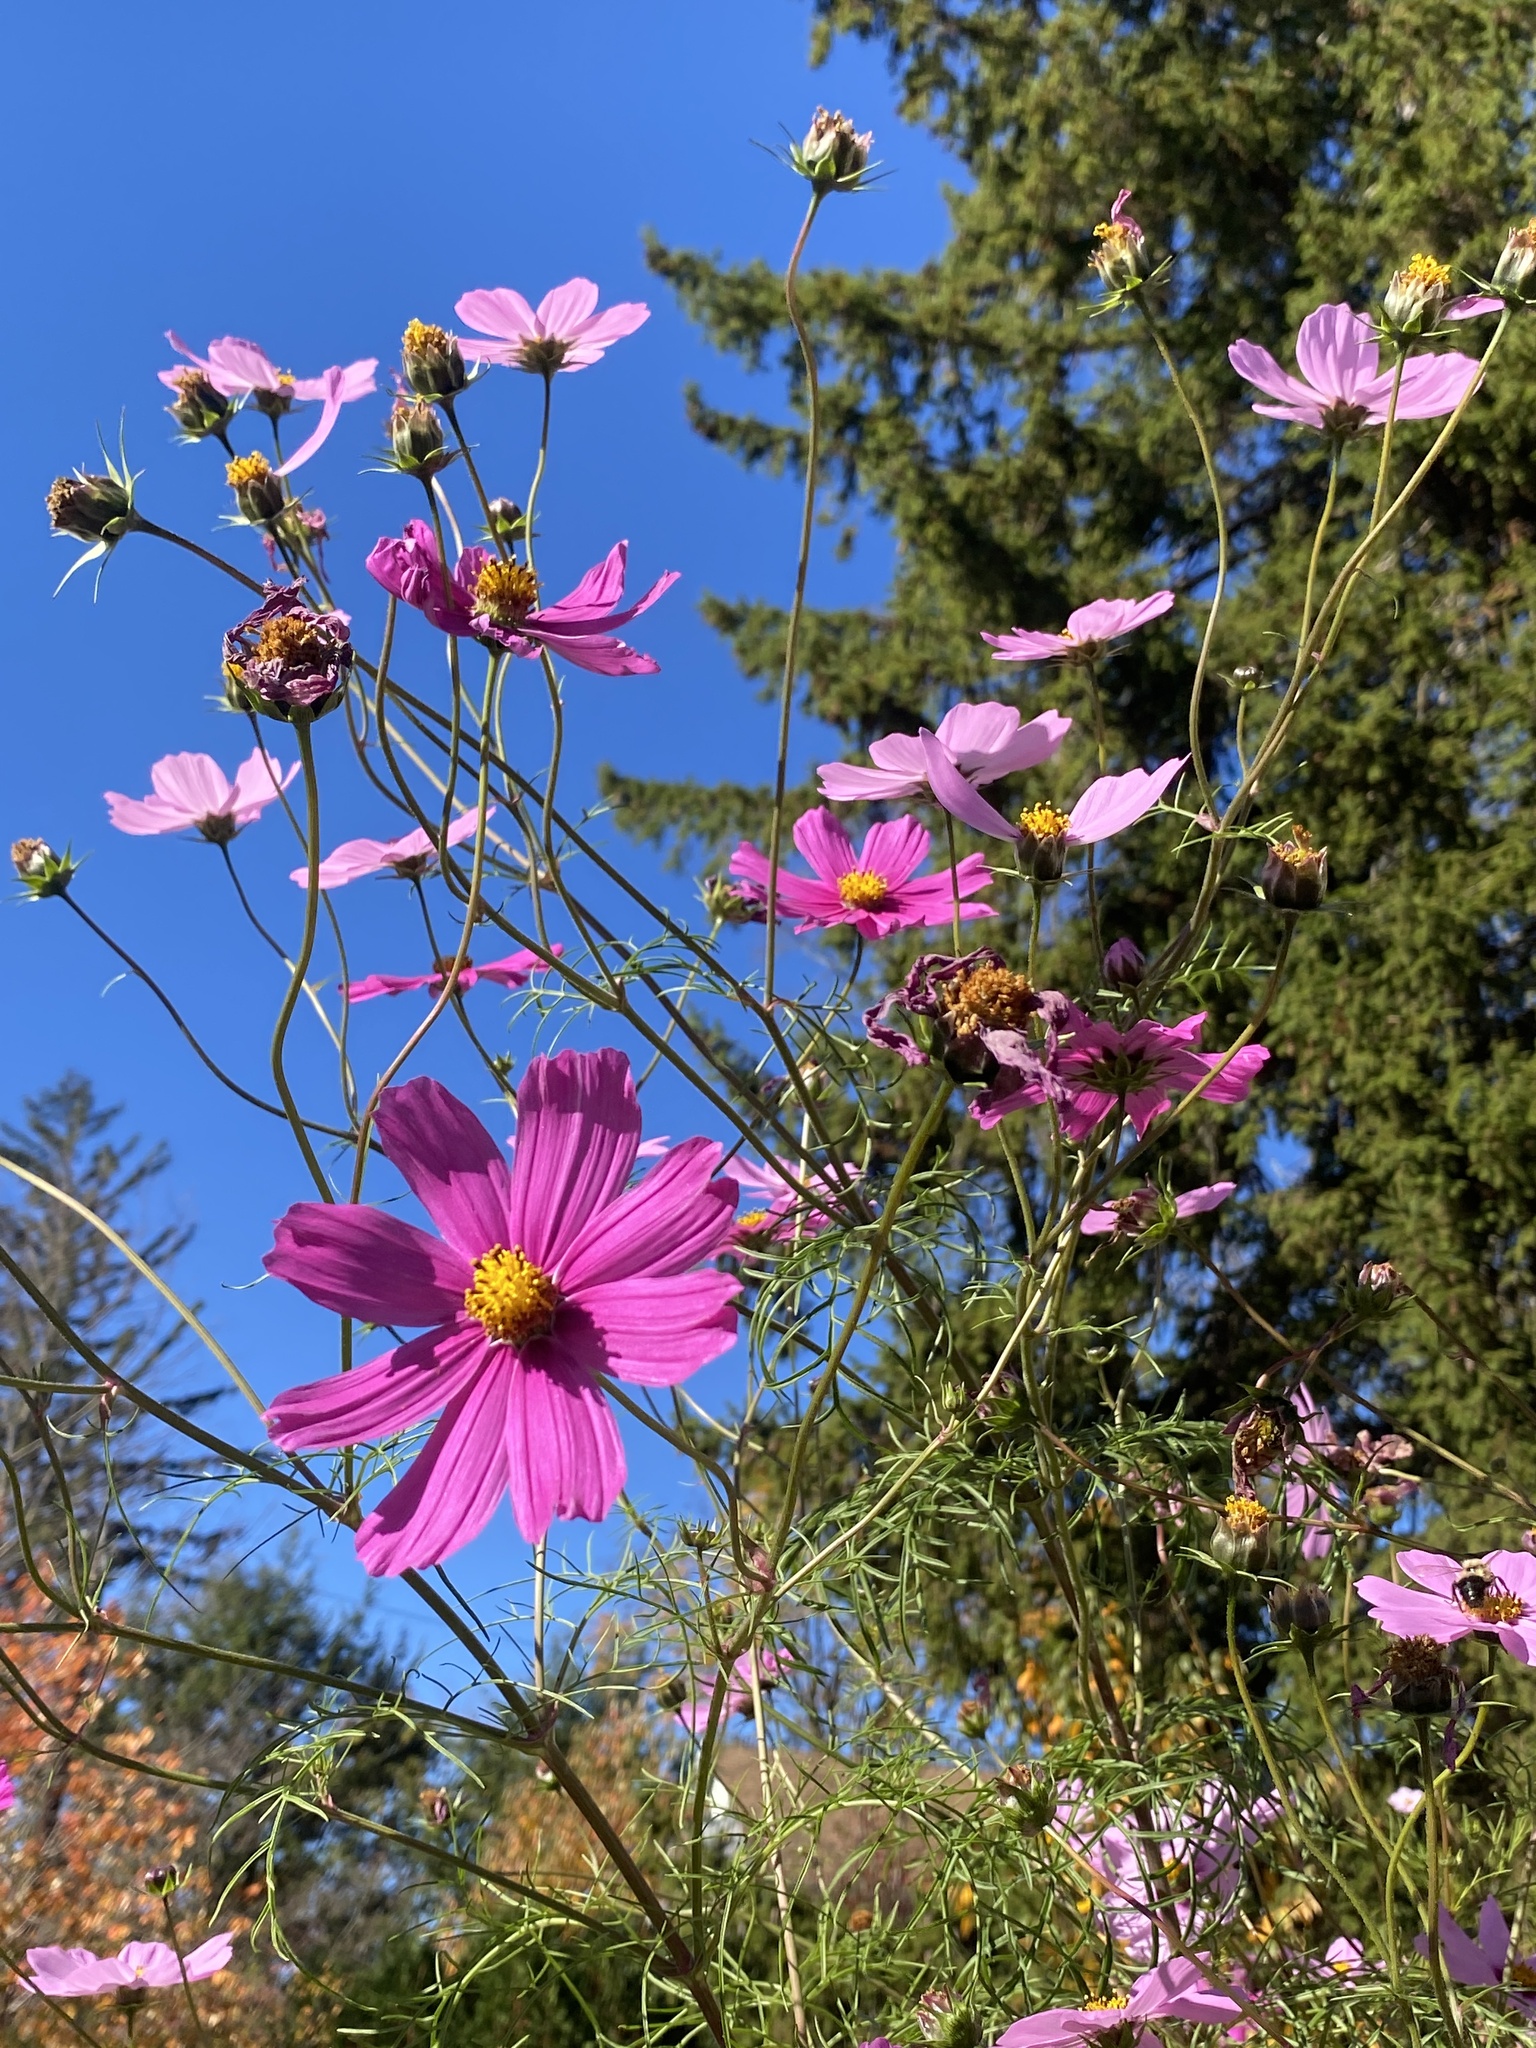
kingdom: Plantae
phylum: Tracheophyta
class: Magnoliopsida
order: Asterales
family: Asteraceae
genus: Cosmos
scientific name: Cosmos bipinnatus
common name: Garden cosmos
